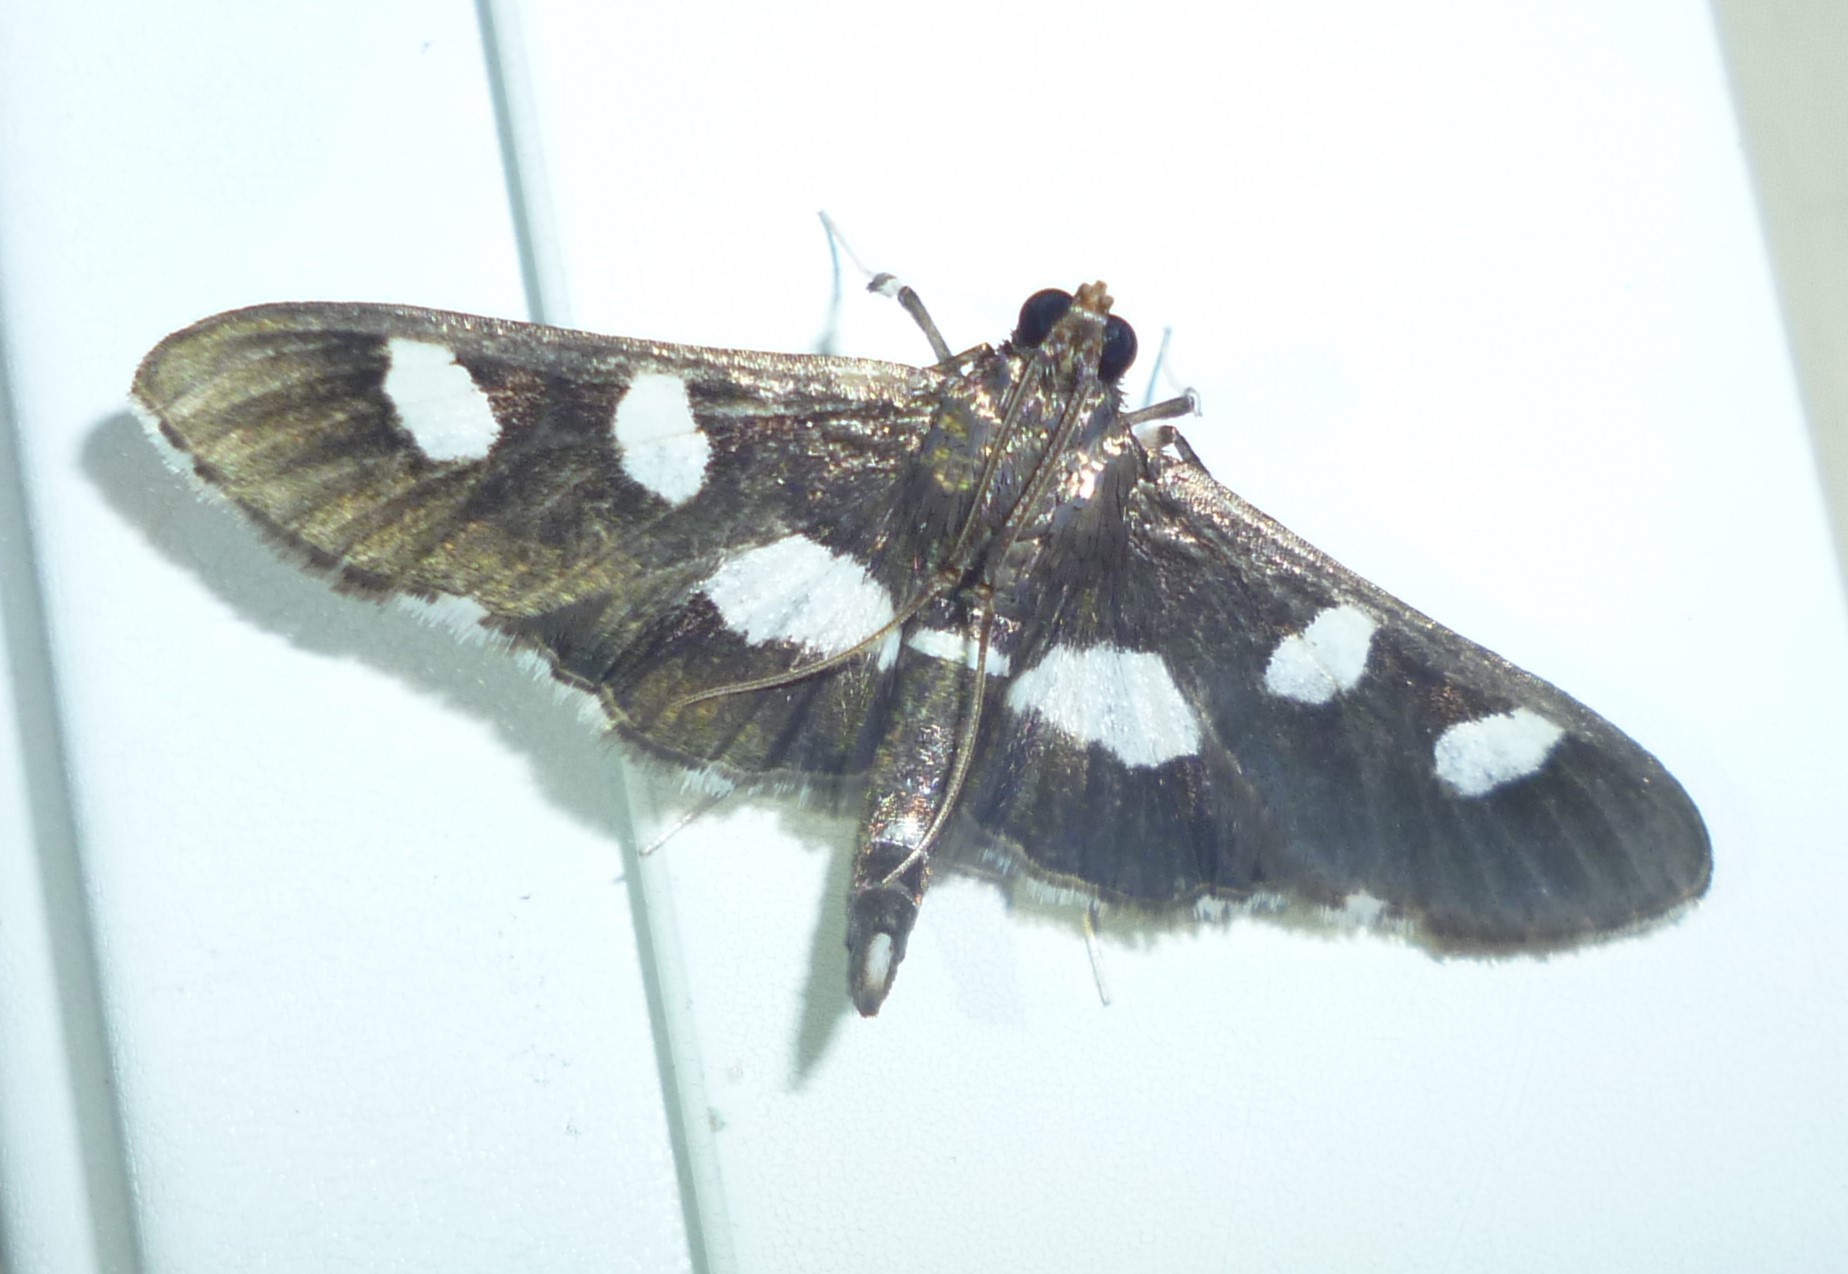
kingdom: Animalia
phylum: Arthropoda
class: Insecta
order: Lepidoptera
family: Crambidae
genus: Desmia
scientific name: Desmia
